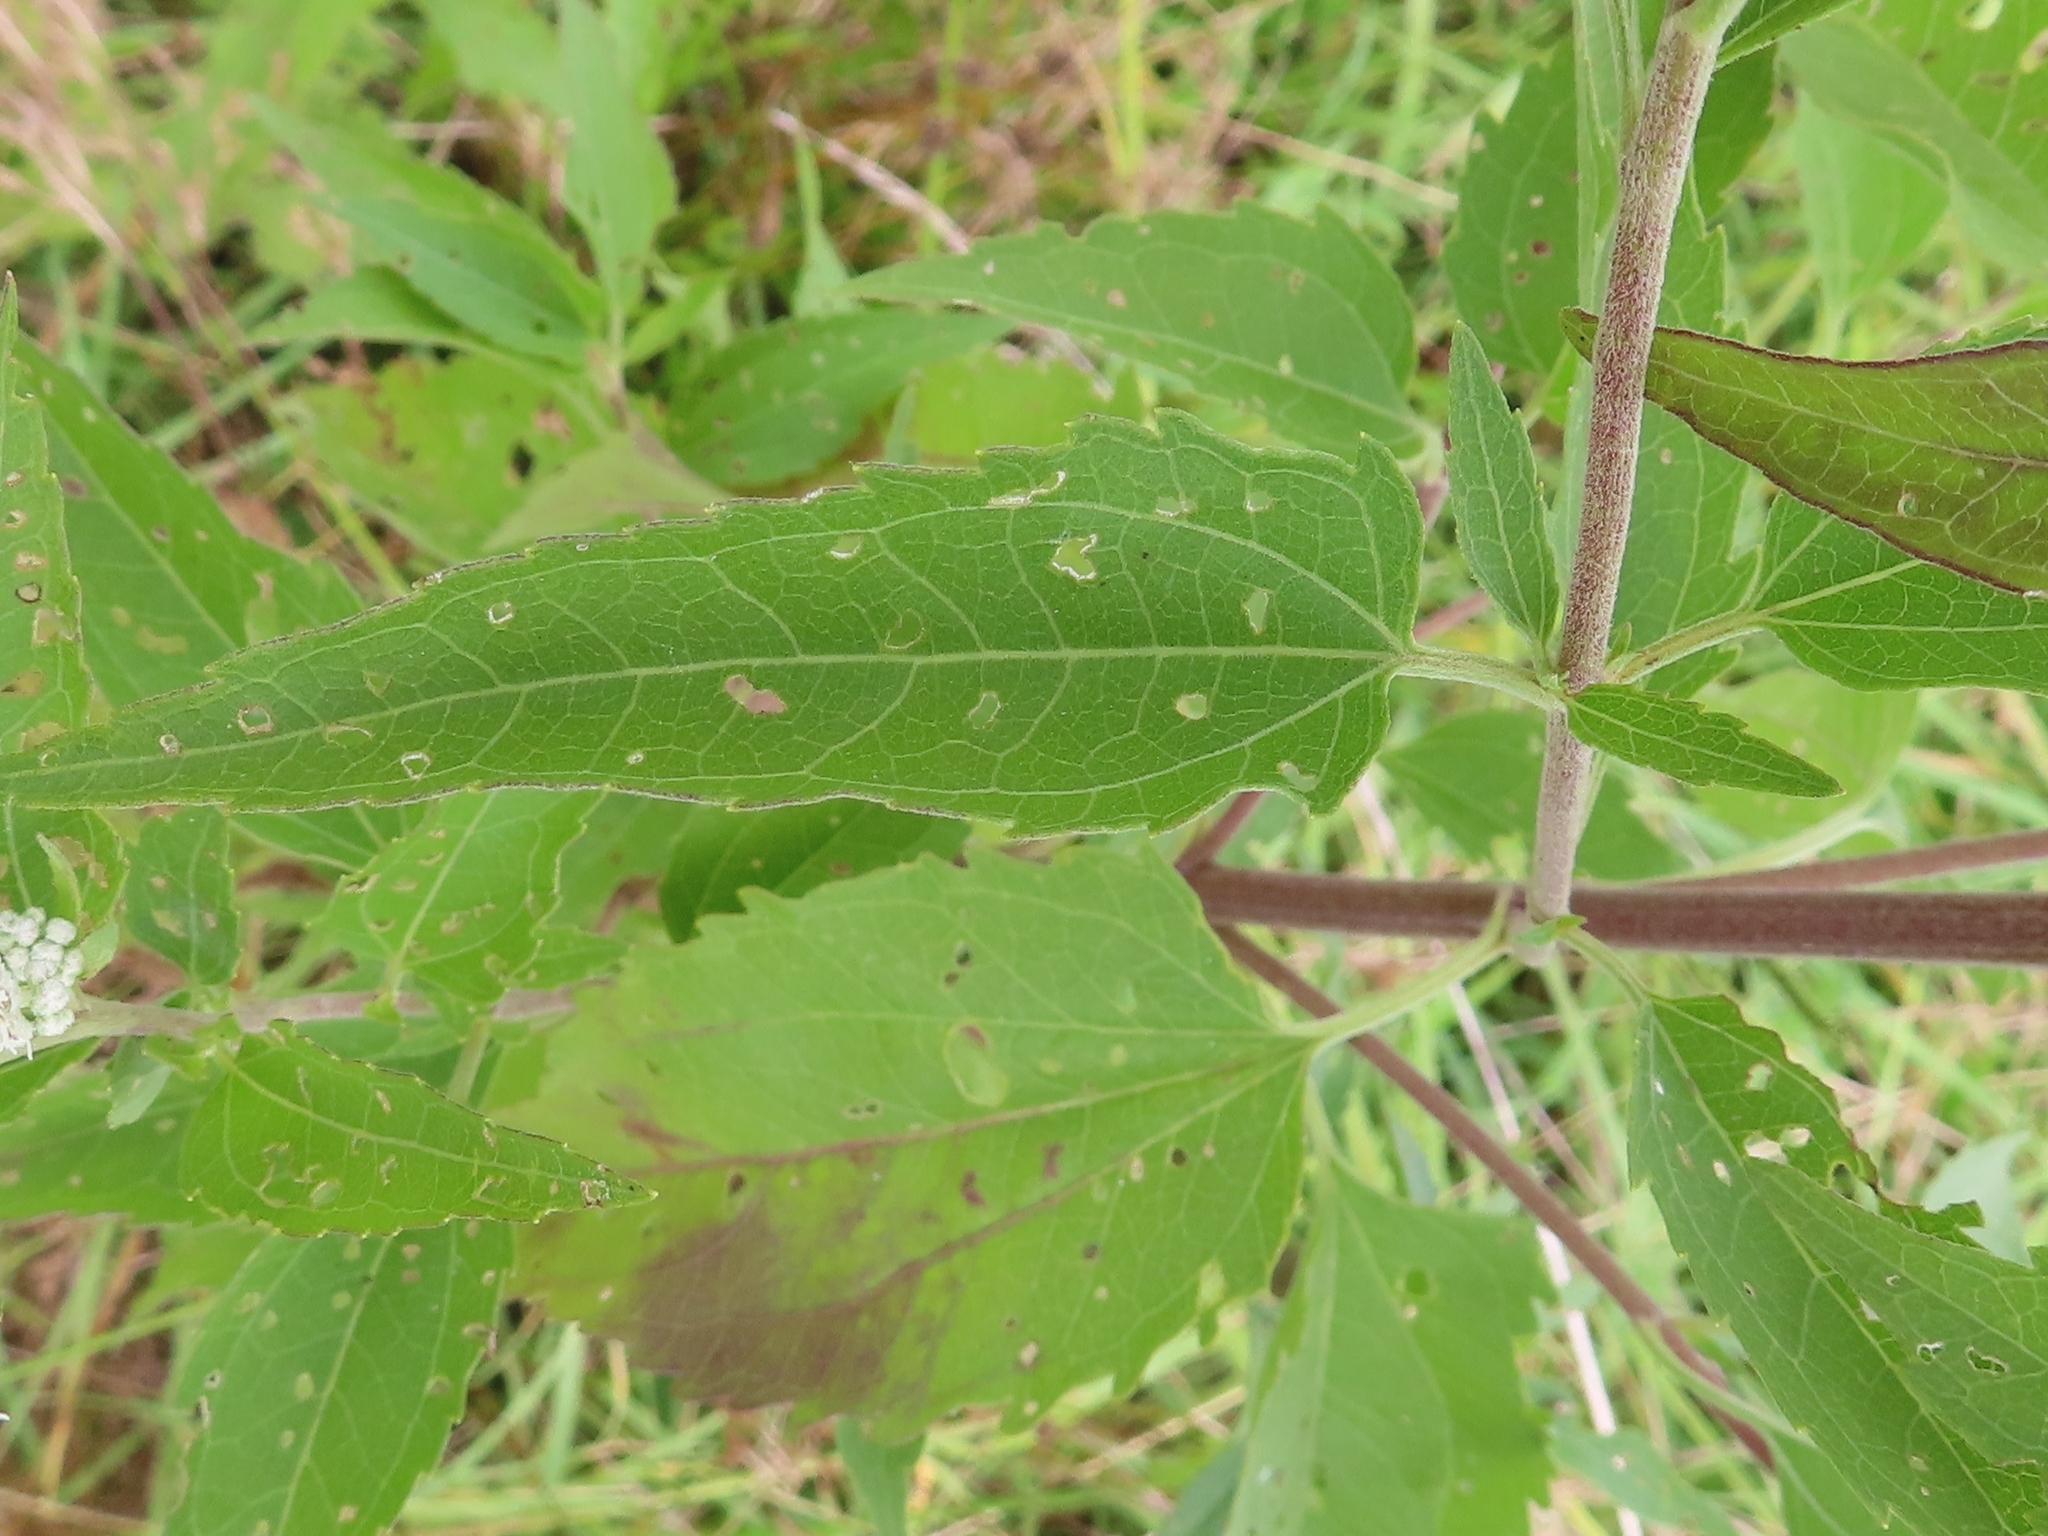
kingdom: Plantae
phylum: Tracheophyta
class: Magnoliopsida
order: Asterales
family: Asteraceae
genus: Eupatorium
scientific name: Eupatorium serotinum
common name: Late boneset
